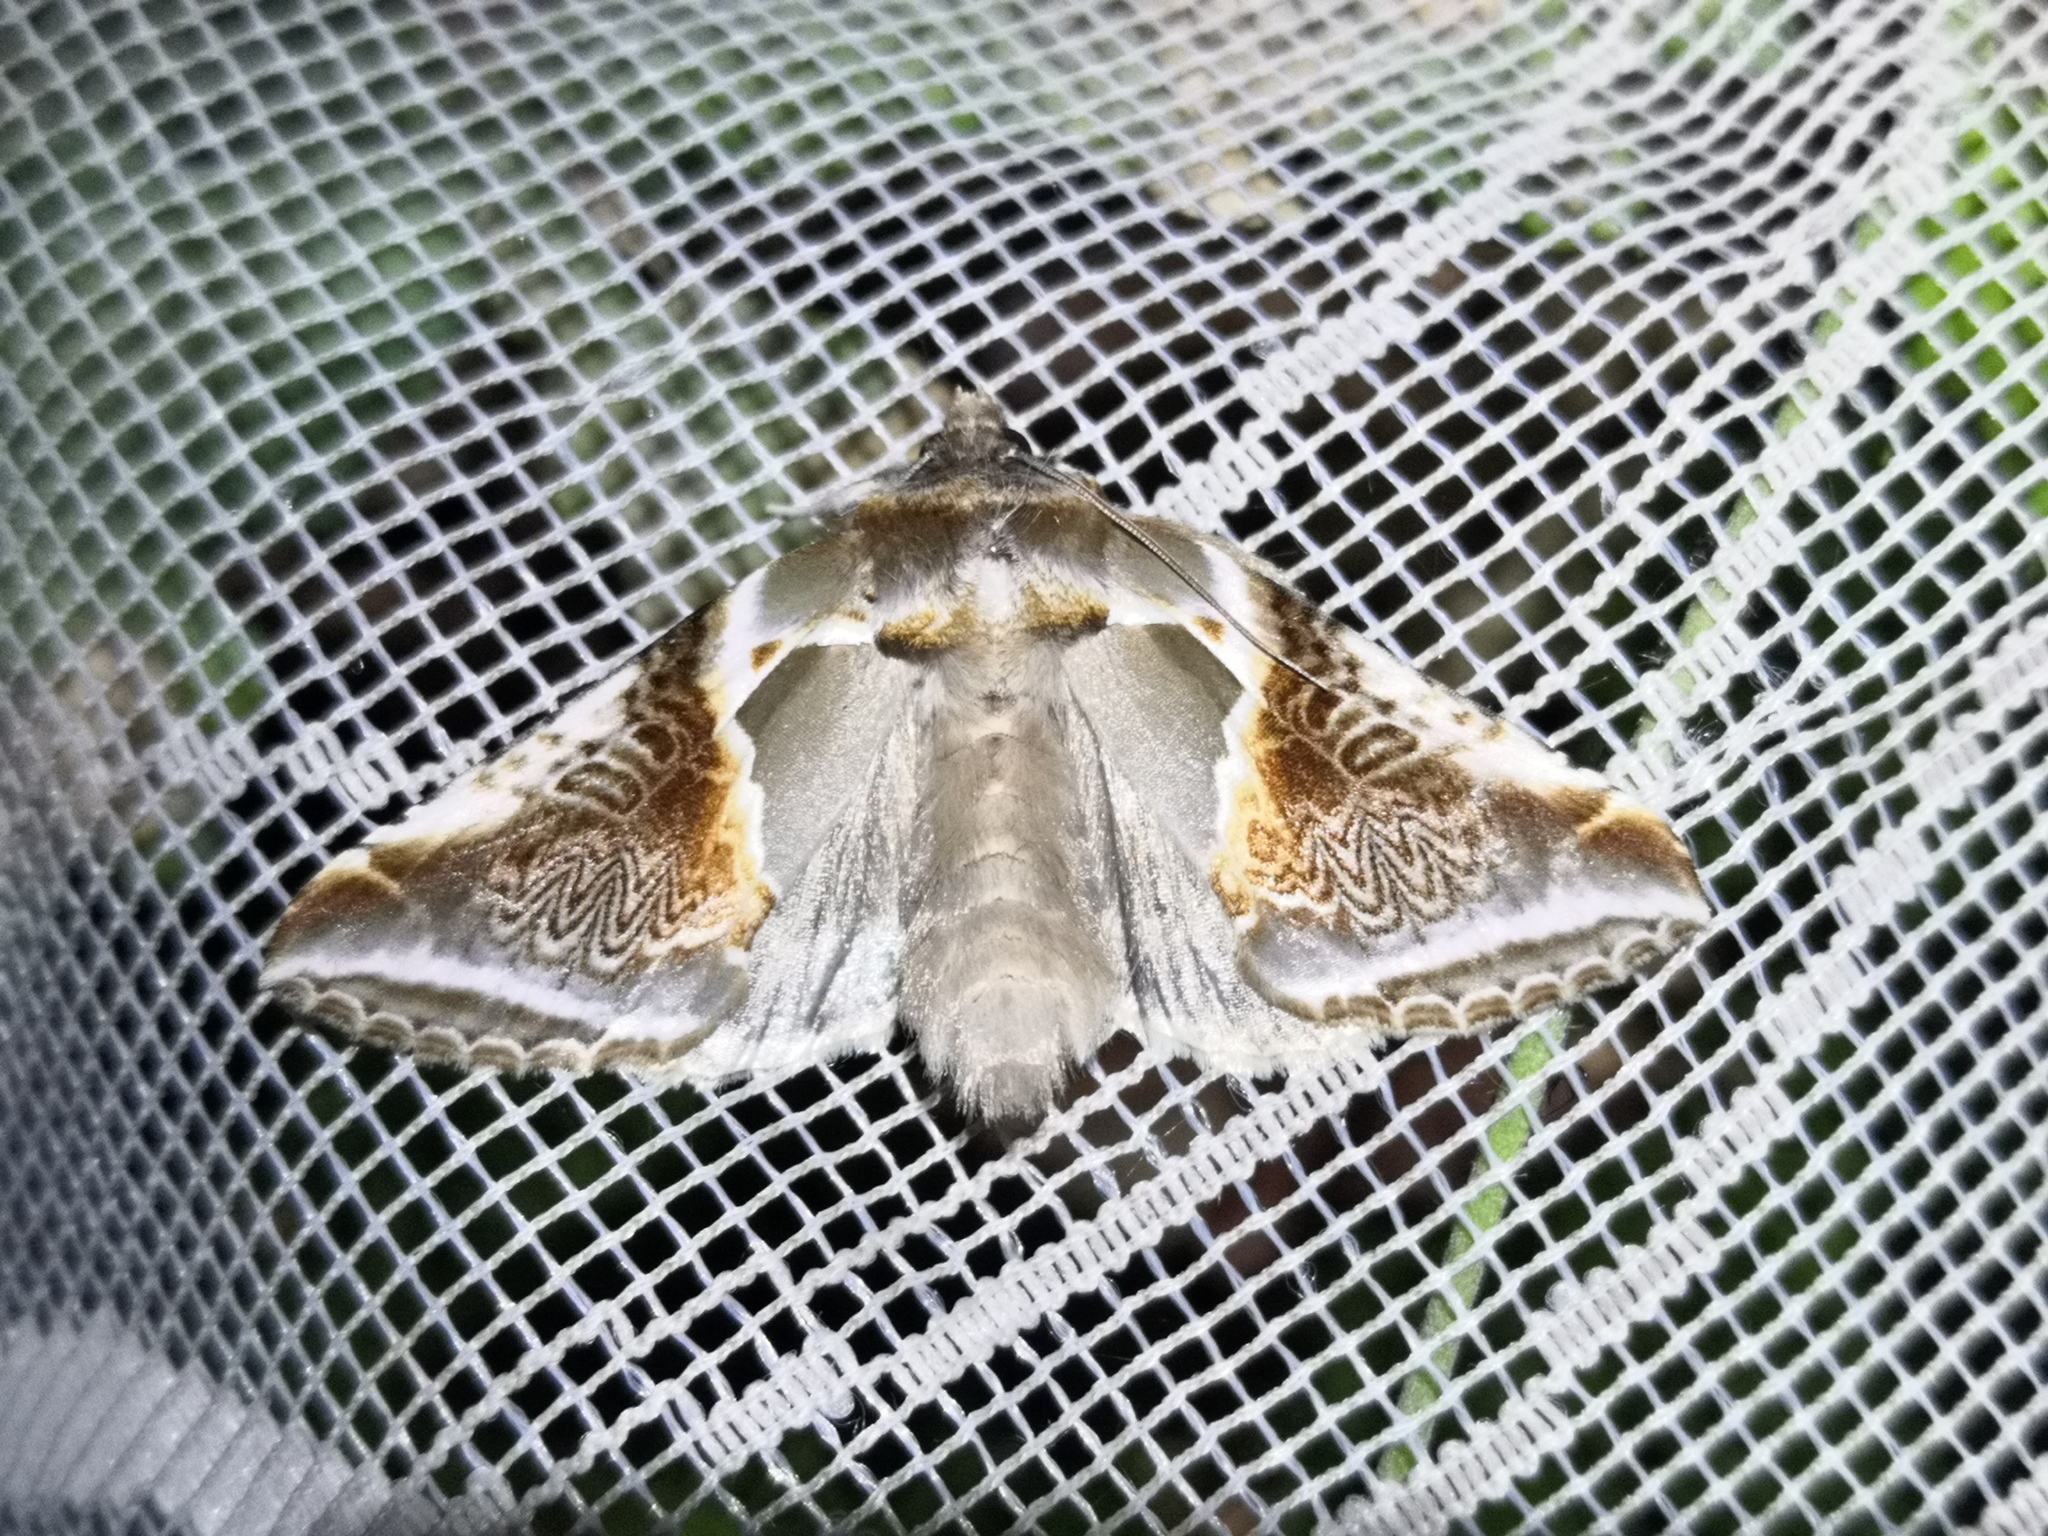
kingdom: Animalia
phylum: Arthropoda
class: Insecta
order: Lepidoptera
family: Drepanidae
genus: Habrosyne
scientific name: Habrosyne pyritoides
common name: Buff arches
